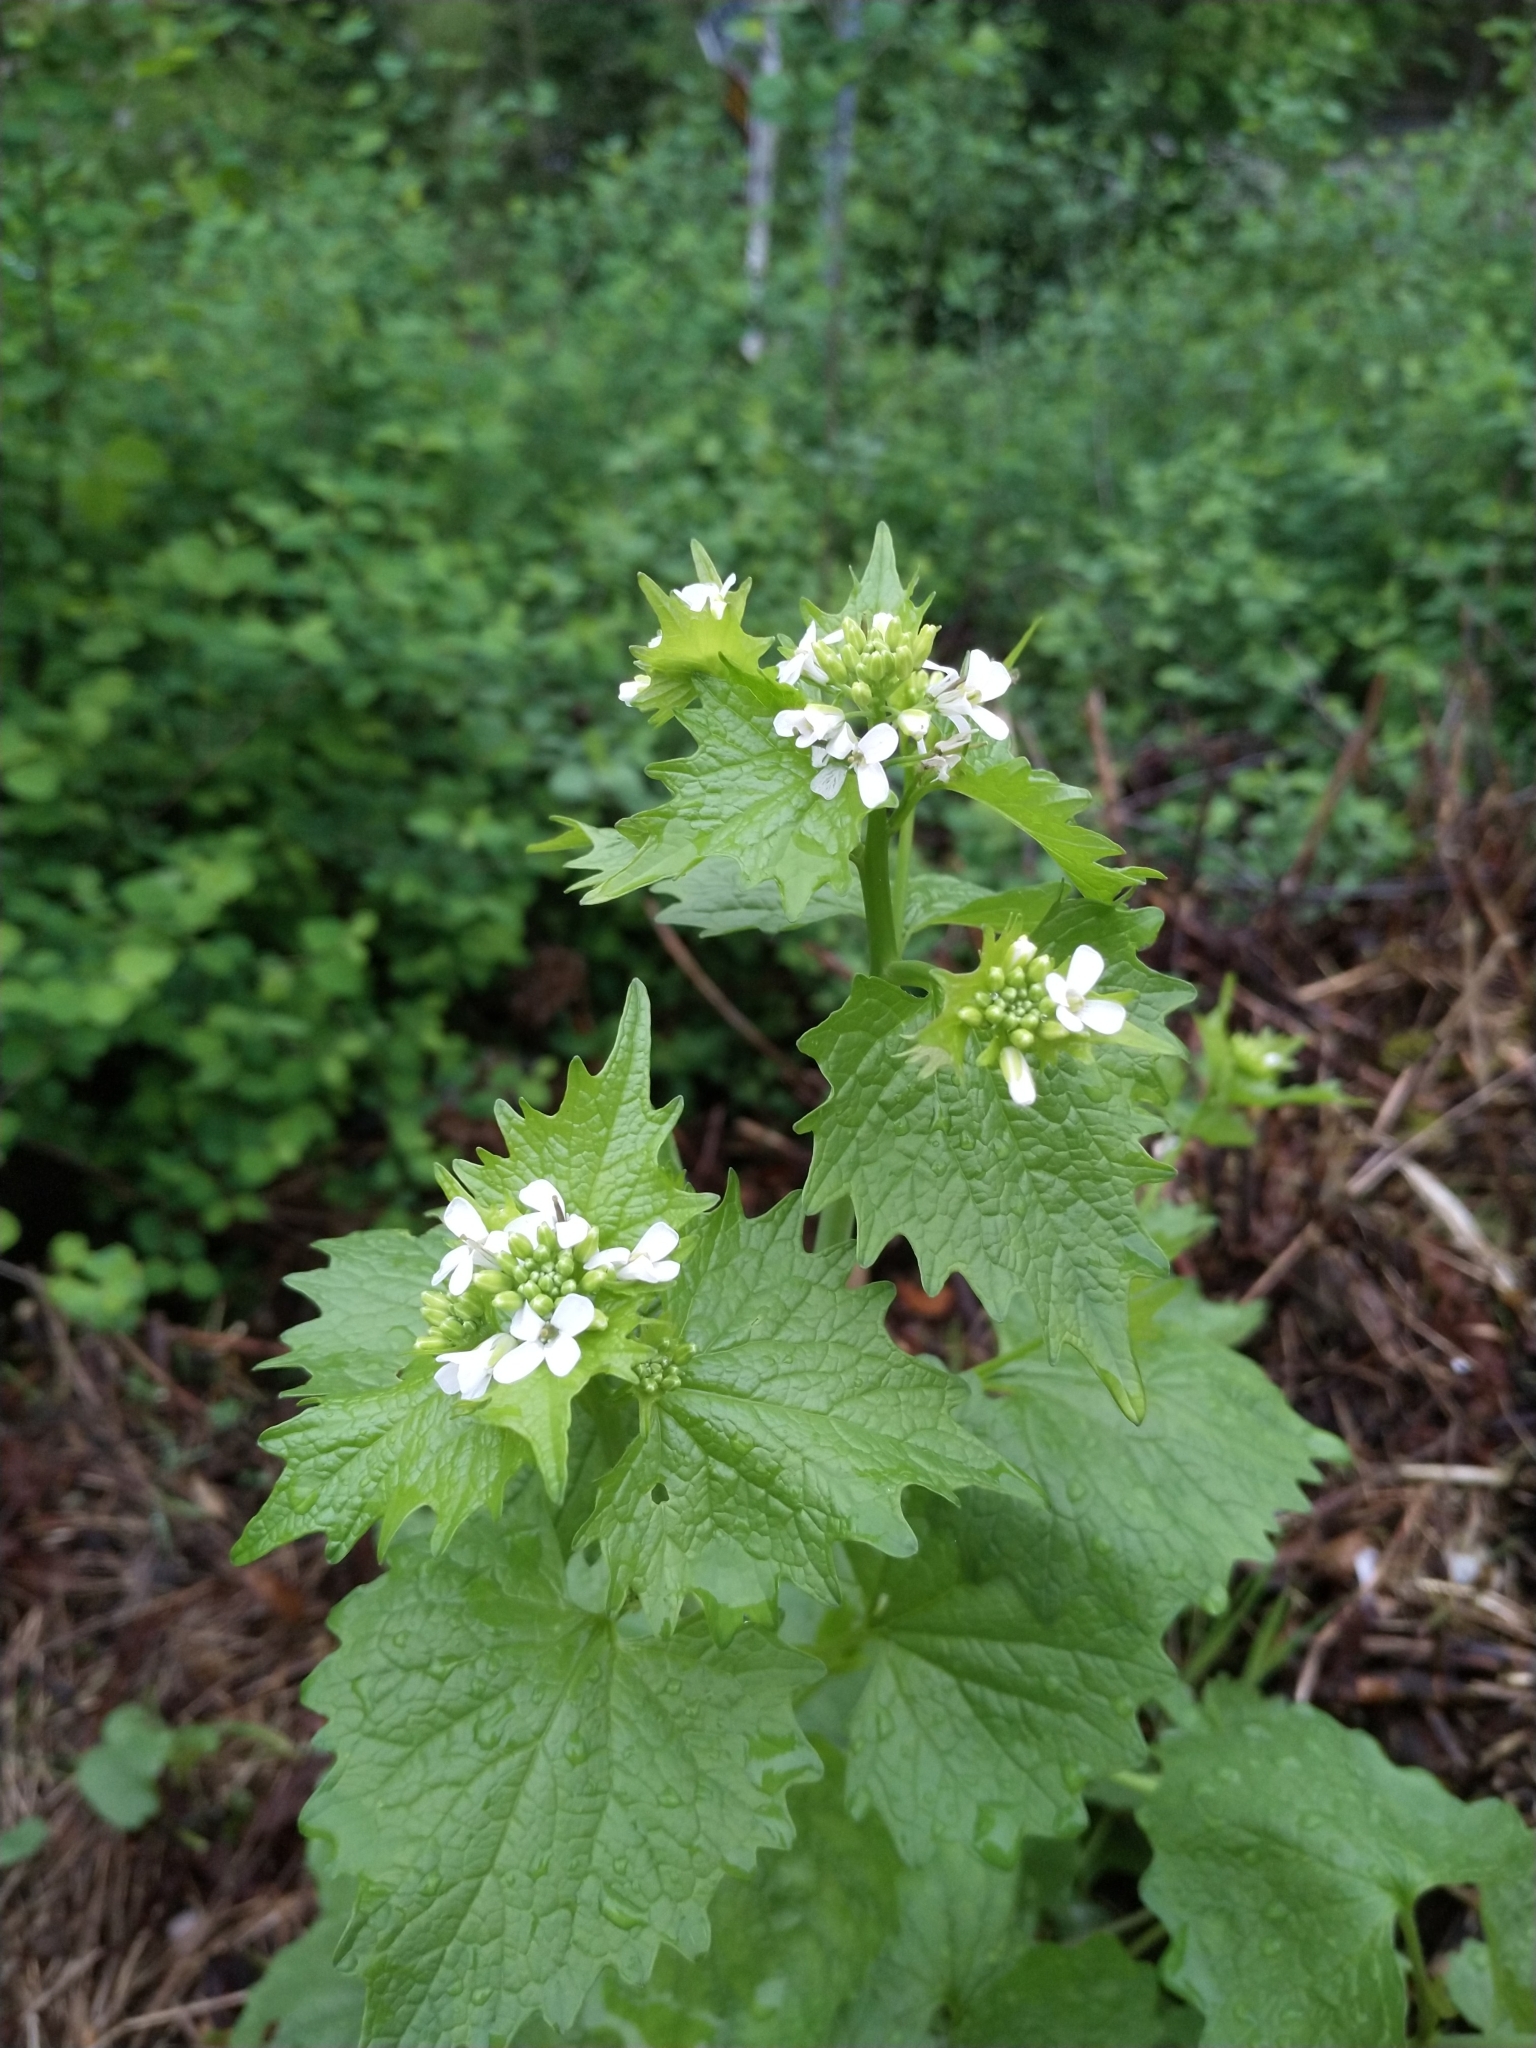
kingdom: Plantae
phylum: Tracheophyta
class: Magnoliopsida
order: Brassicales
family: Brassicaceae
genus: Alliaria
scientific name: Alliaria petiolata
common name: Garlic mustard
